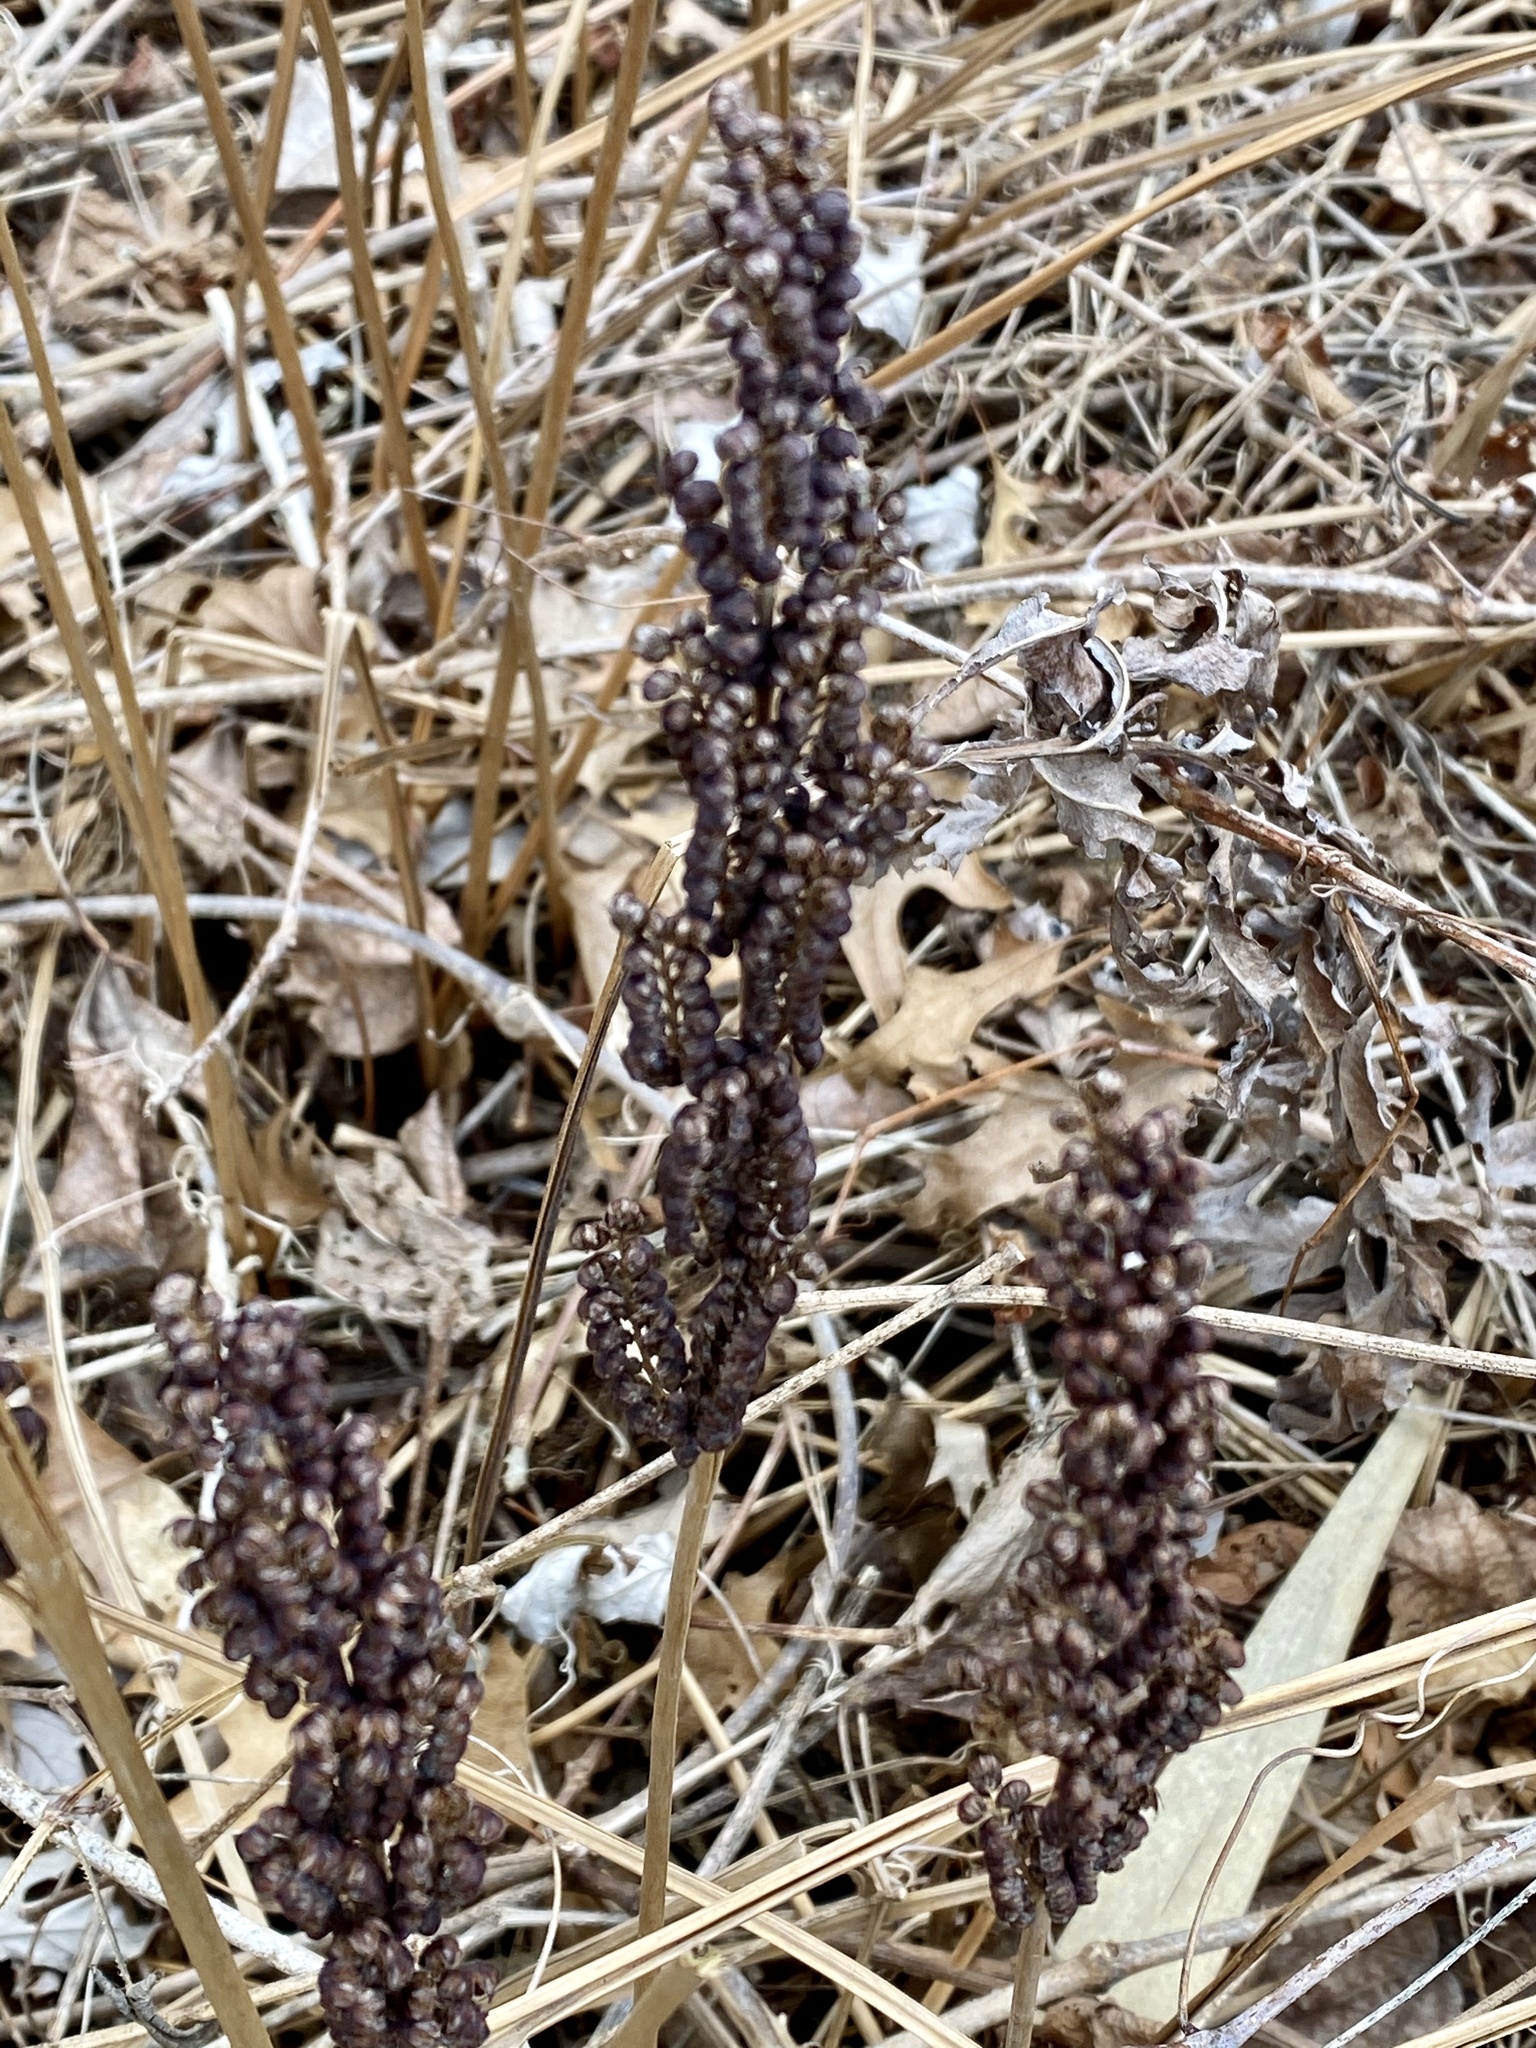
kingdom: Plantae
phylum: Tracheophyta
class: Polypodiopsida
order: Polypodiales
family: Onocleaceae
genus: Onoclea
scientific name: Onoclea sensibilis
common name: Sensitive fern
